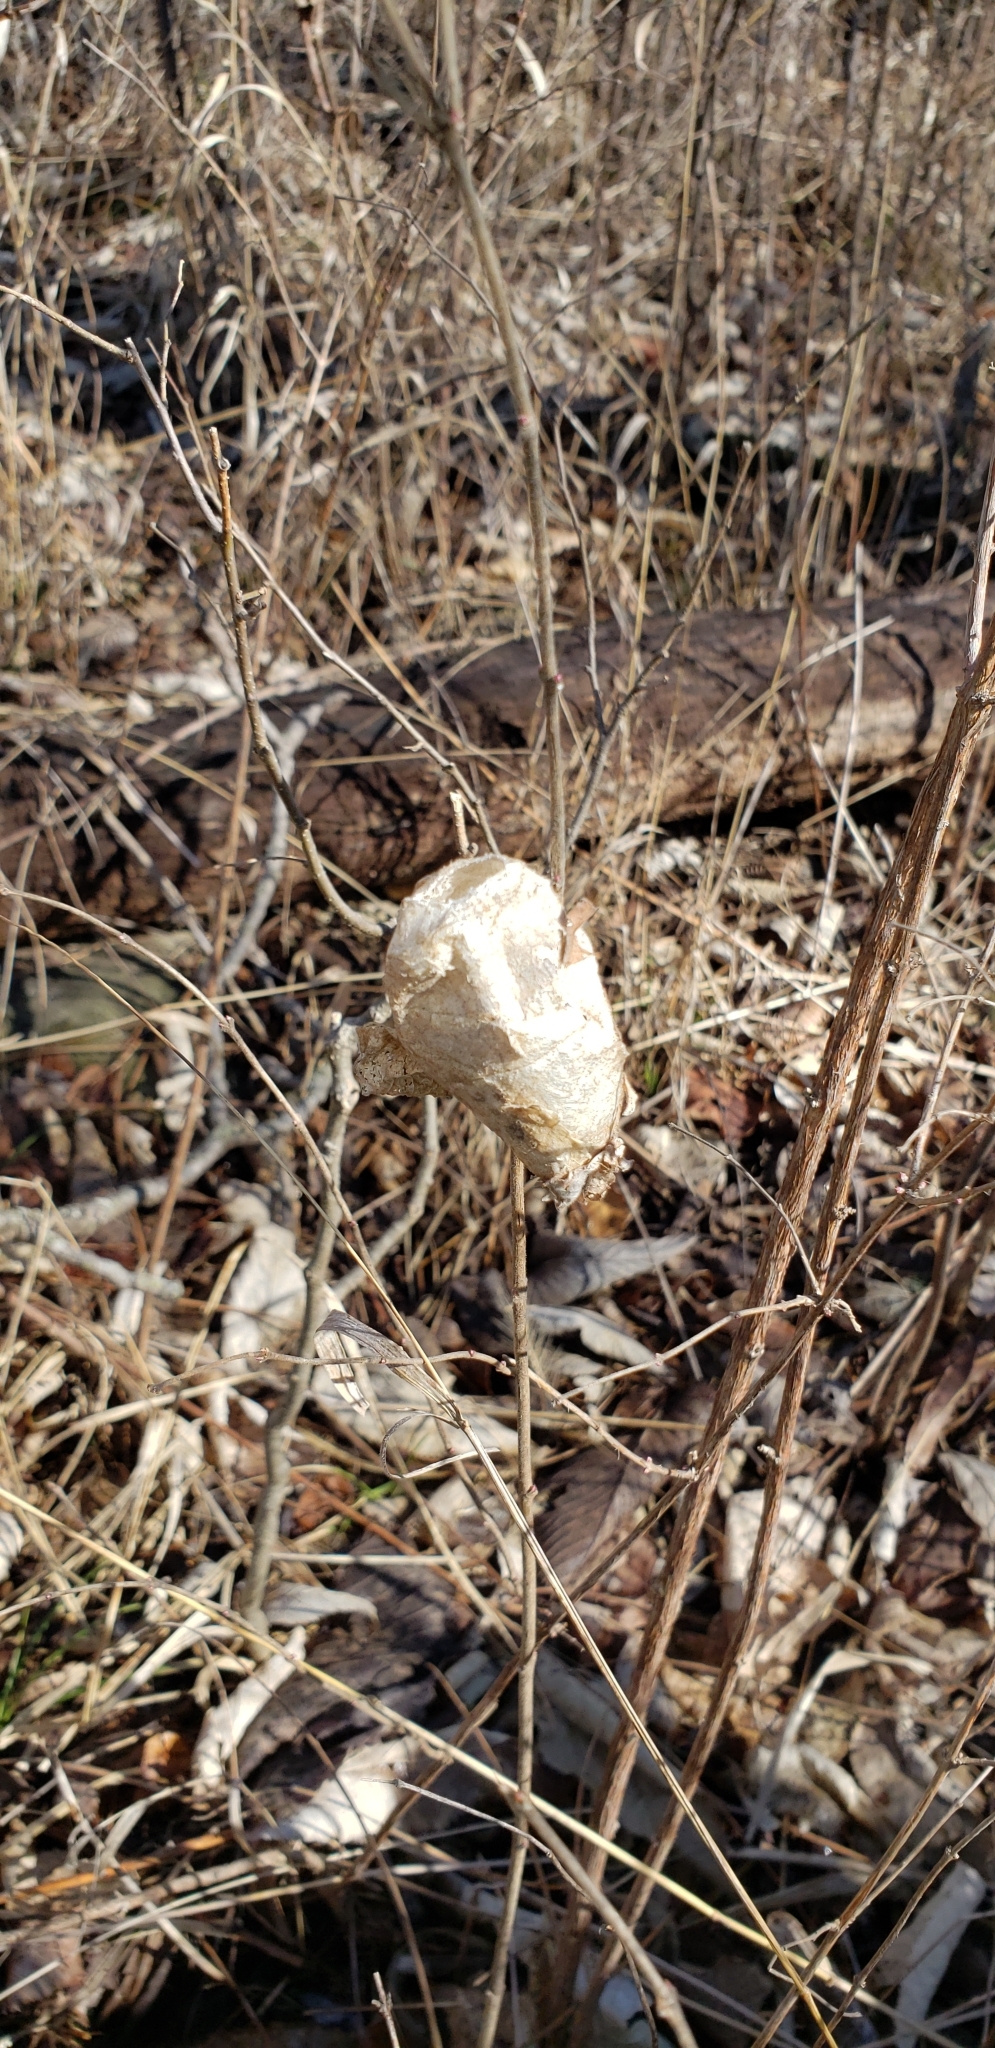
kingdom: Animalia
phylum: Arthropoda
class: Insecta
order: Lepidoptera
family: Saturniidae
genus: Antheraea
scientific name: Antheraea polyphemus
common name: Polyphemus moth
